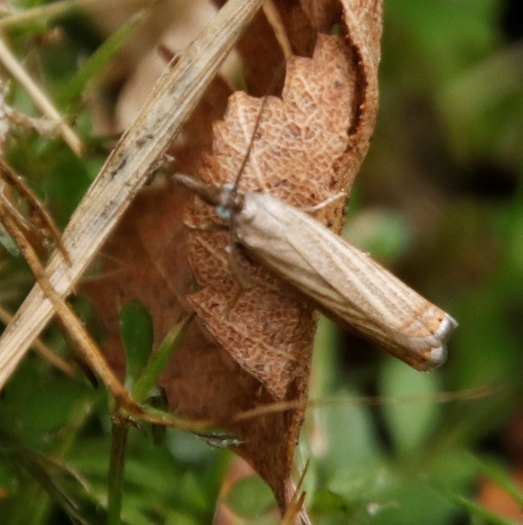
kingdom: Animalia
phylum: Arthropoda
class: Insecta
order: Lepidoptera
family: Crambidae
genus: Chrysoteuchia
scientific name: Chrysoteuchia culmella
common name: Garden grass-veneer
